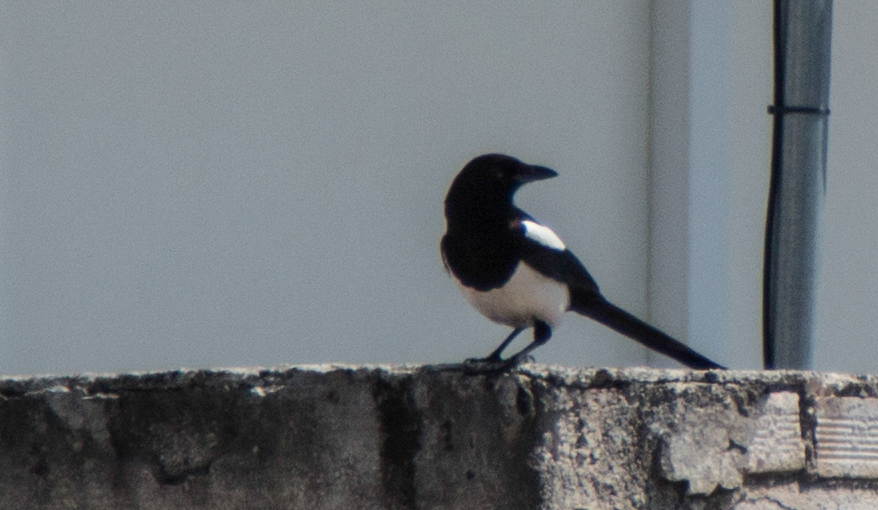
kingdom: Animalia
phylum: Chordata
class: Aves
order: Passeriformes
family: Corvidae
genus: Pica
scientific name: Pica pica
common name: Eurasian magpie
